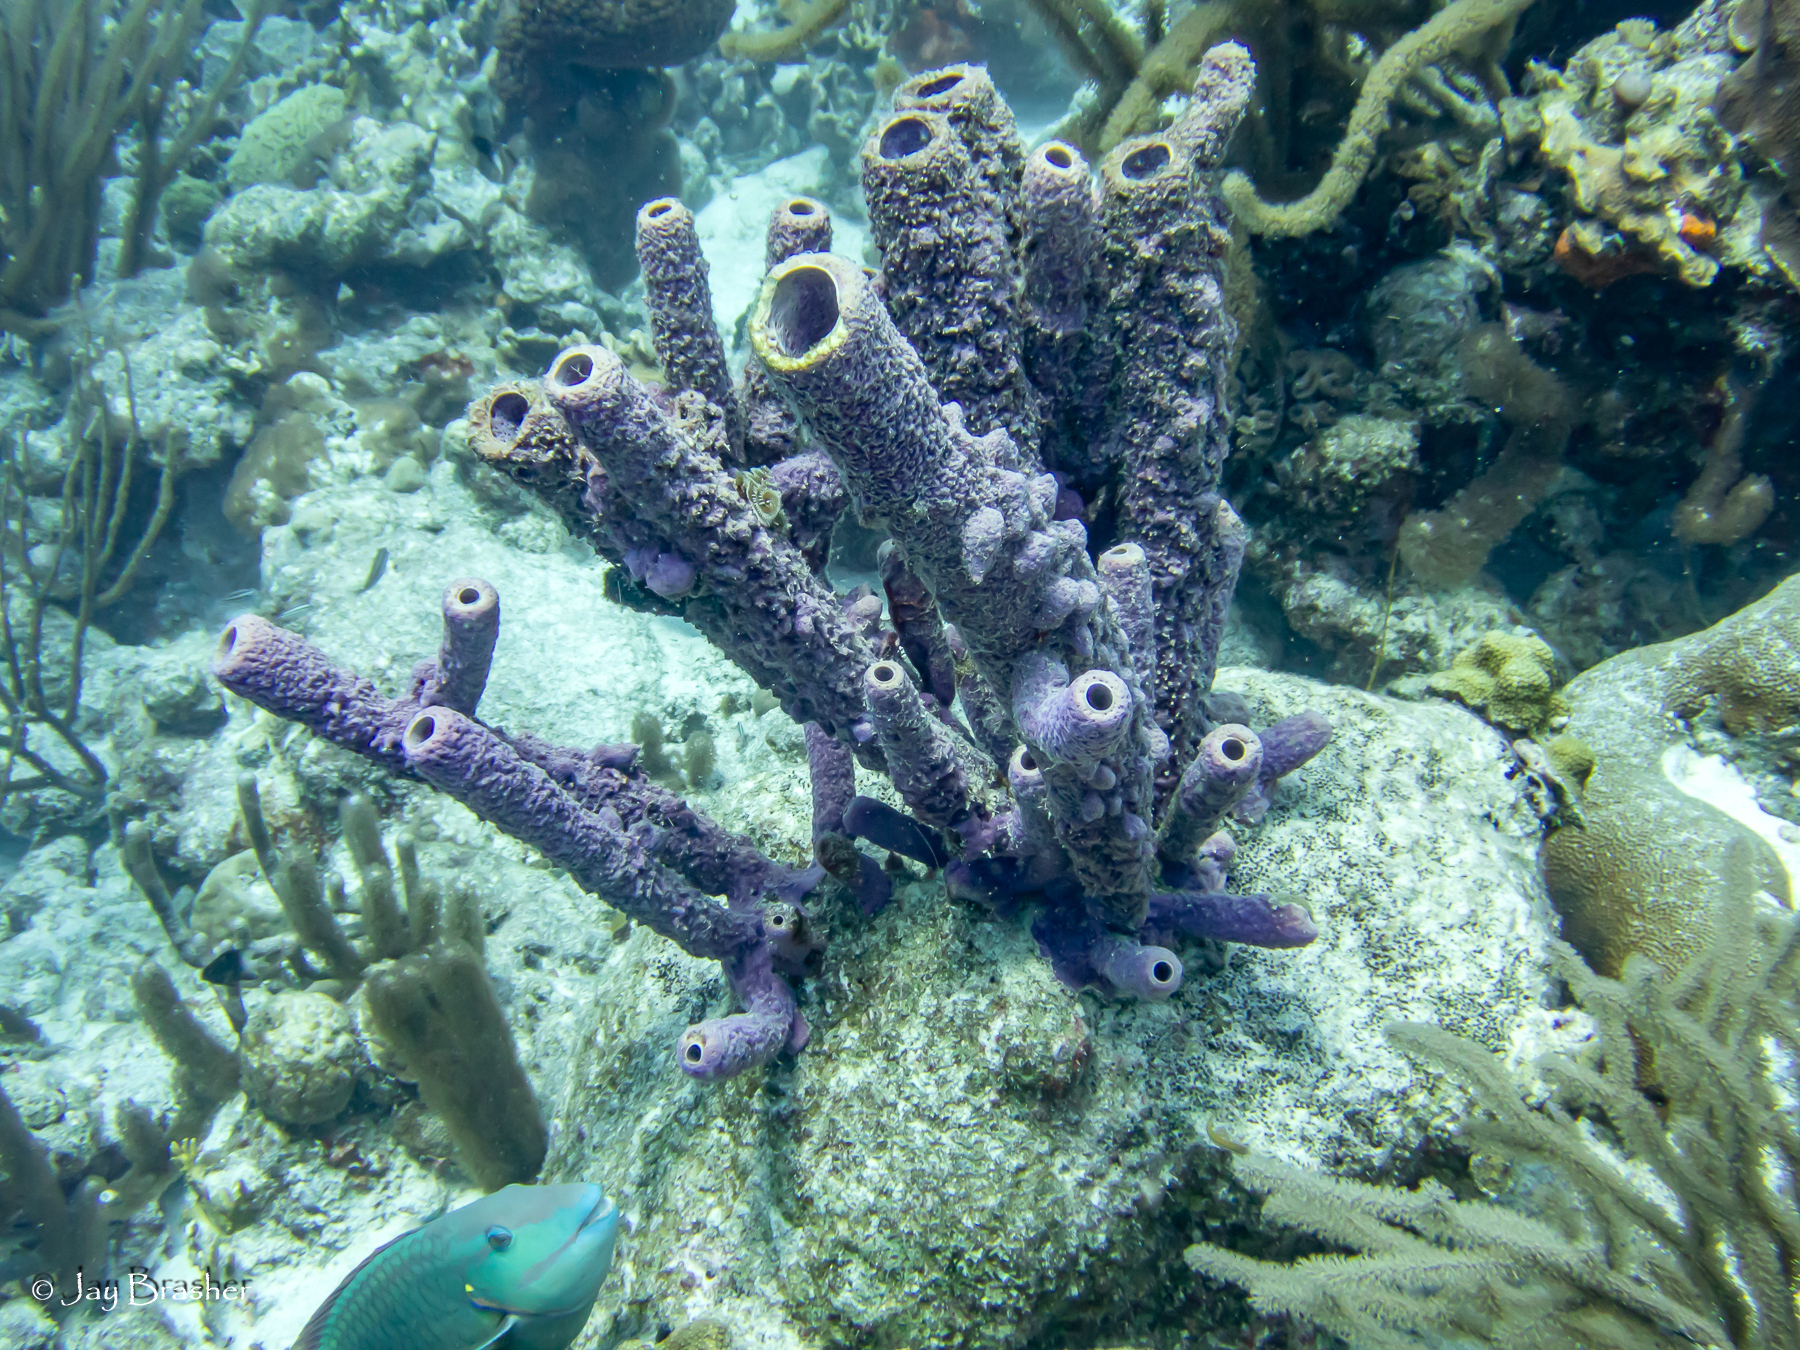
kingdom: Animalia
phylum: Porifera
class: Demospongiae
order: Verongiida
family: Aplysinidae
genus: Aplysina
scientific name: Aplysina archeri
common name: Stove-pipe sponge
